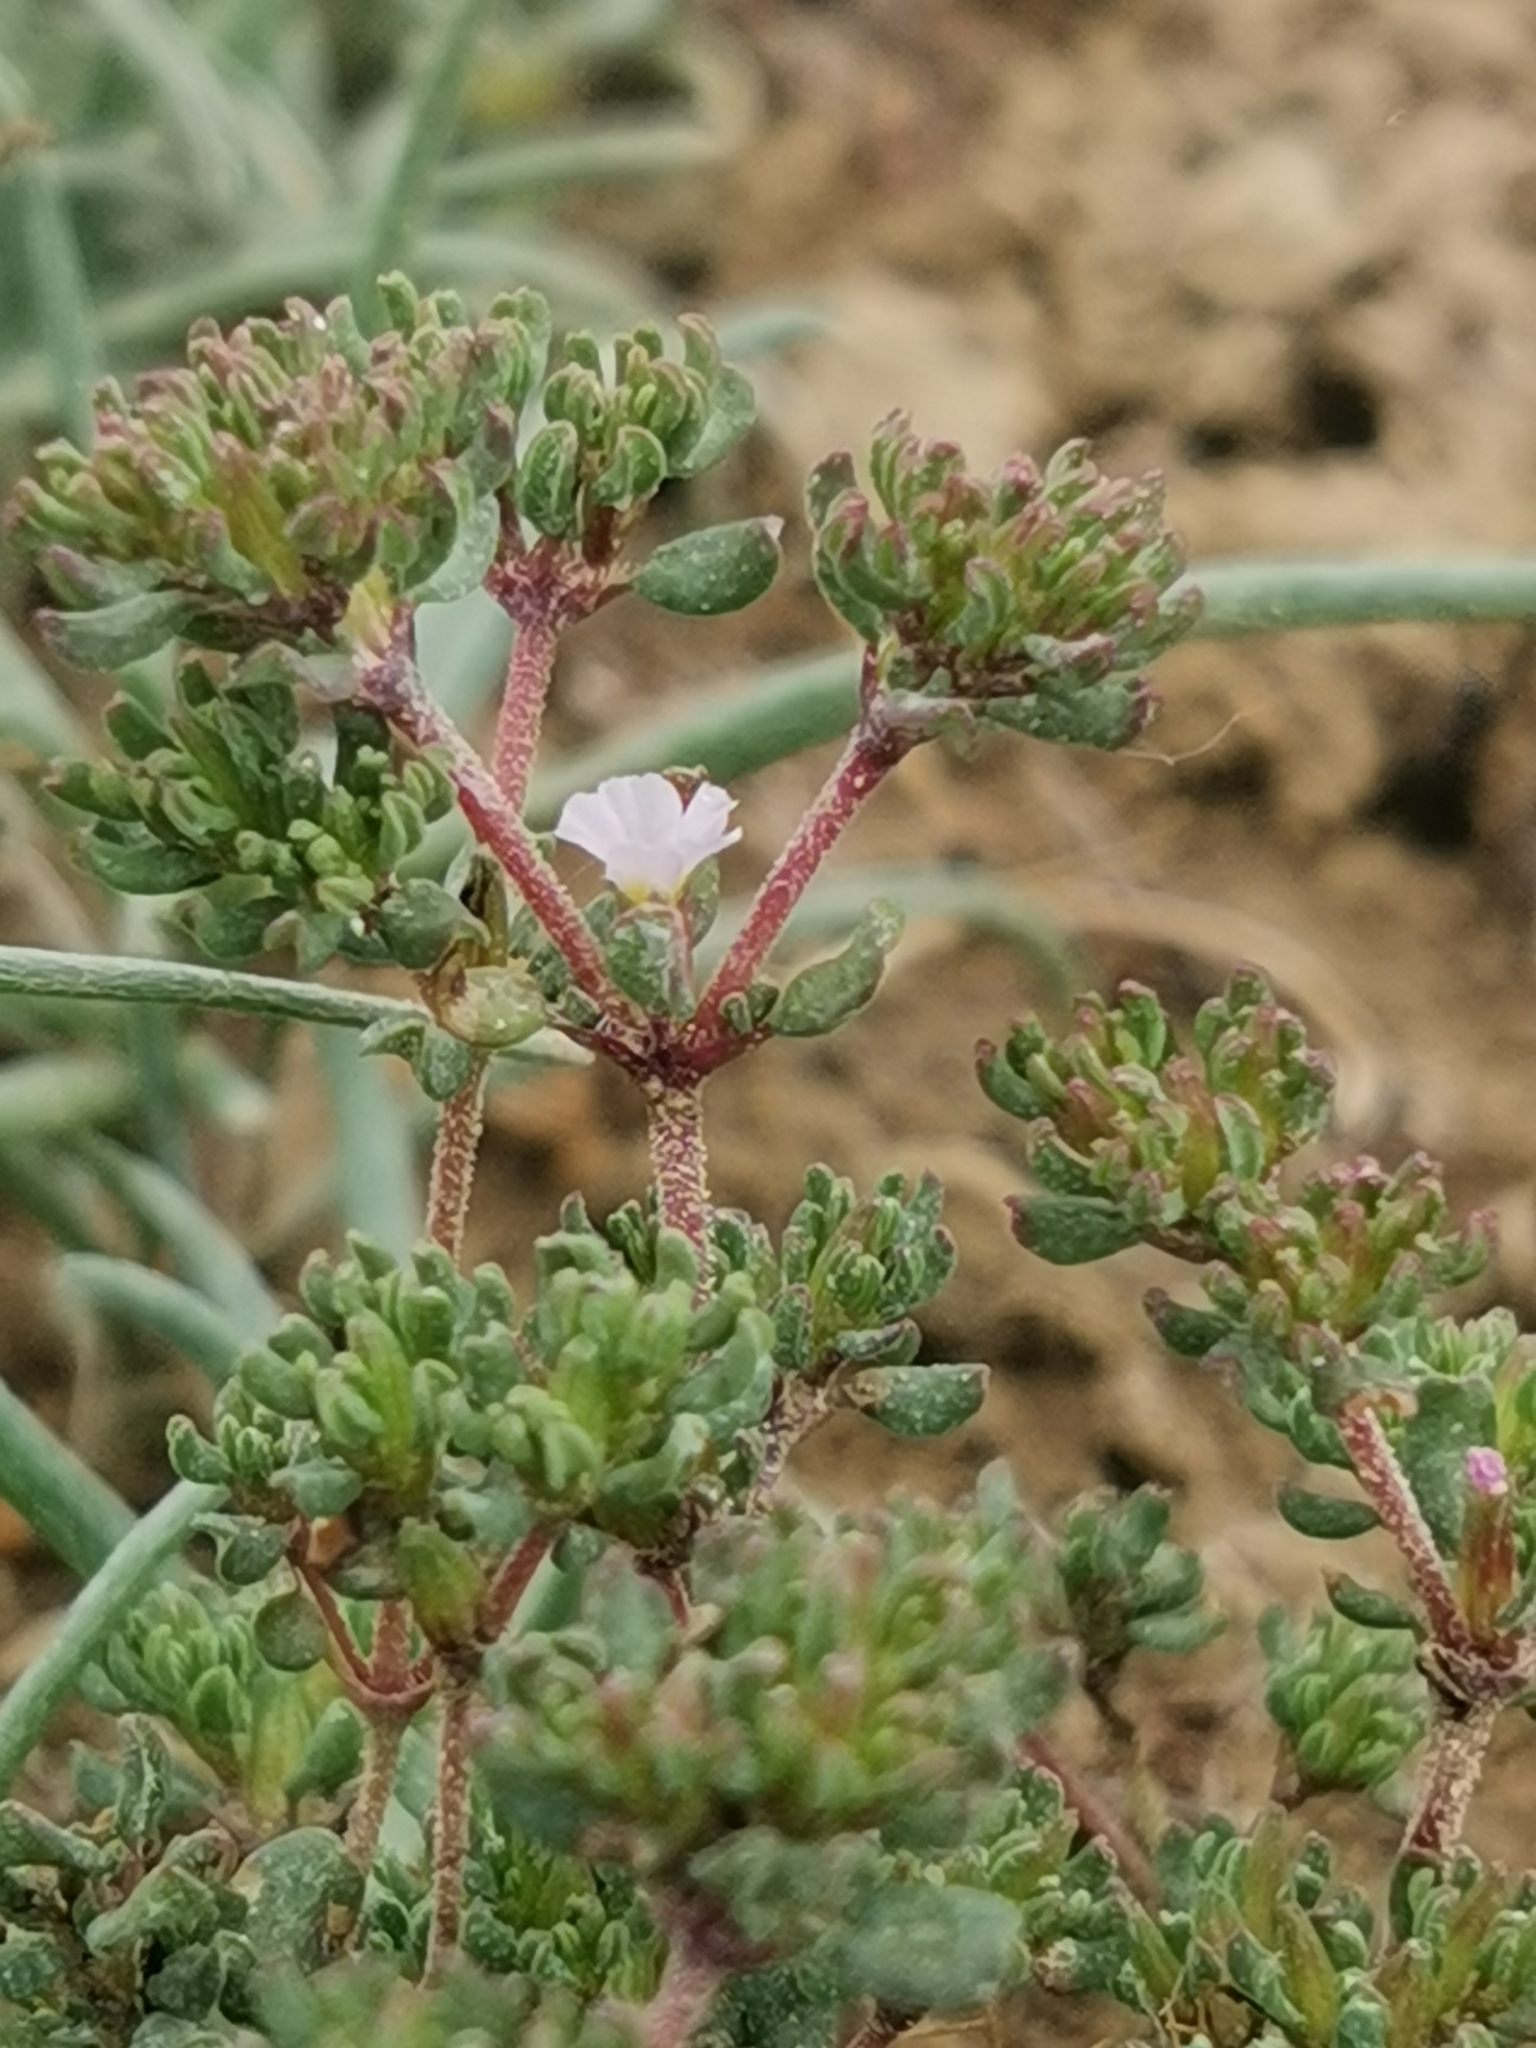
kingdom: Plantae
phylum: Tracheophyta
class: Magnoliopsida
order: Caryophyllales
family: Frankeniaceae
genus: Frankenia
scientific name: Frankenia pulverulenta
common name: European seaheath
